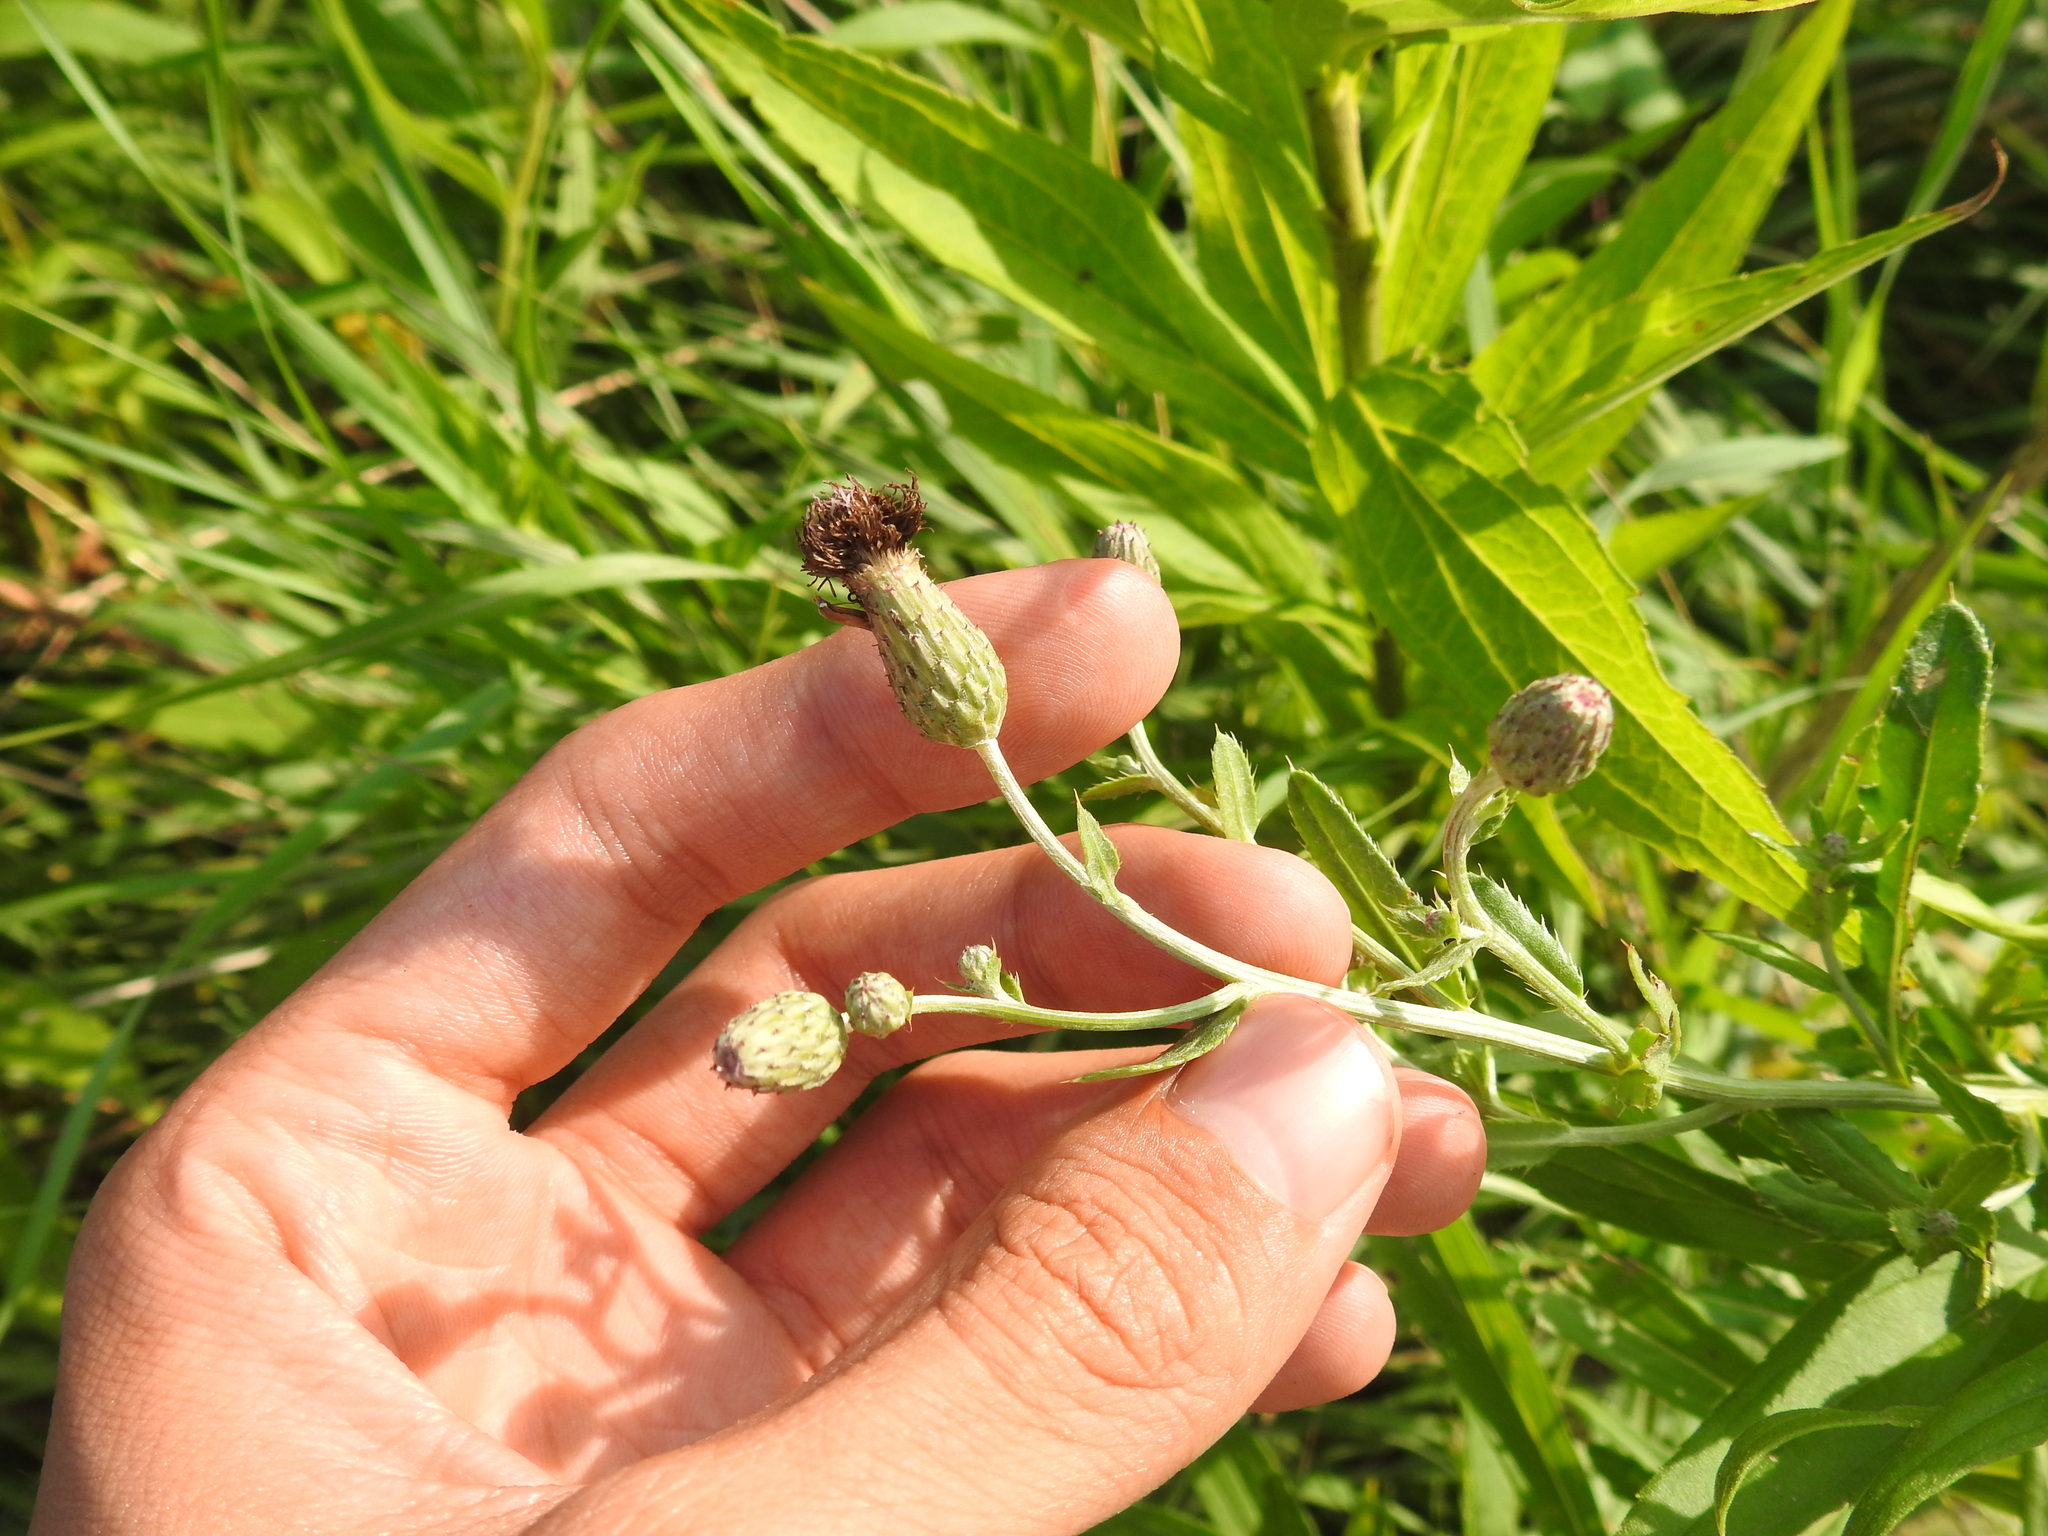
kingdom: Plantae
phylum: Tracheophyta
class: Magnoliopsida
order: Asterales
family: Asteraceae
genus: Cirsium
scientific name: Cirsium arvense
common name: Creeping thistle
